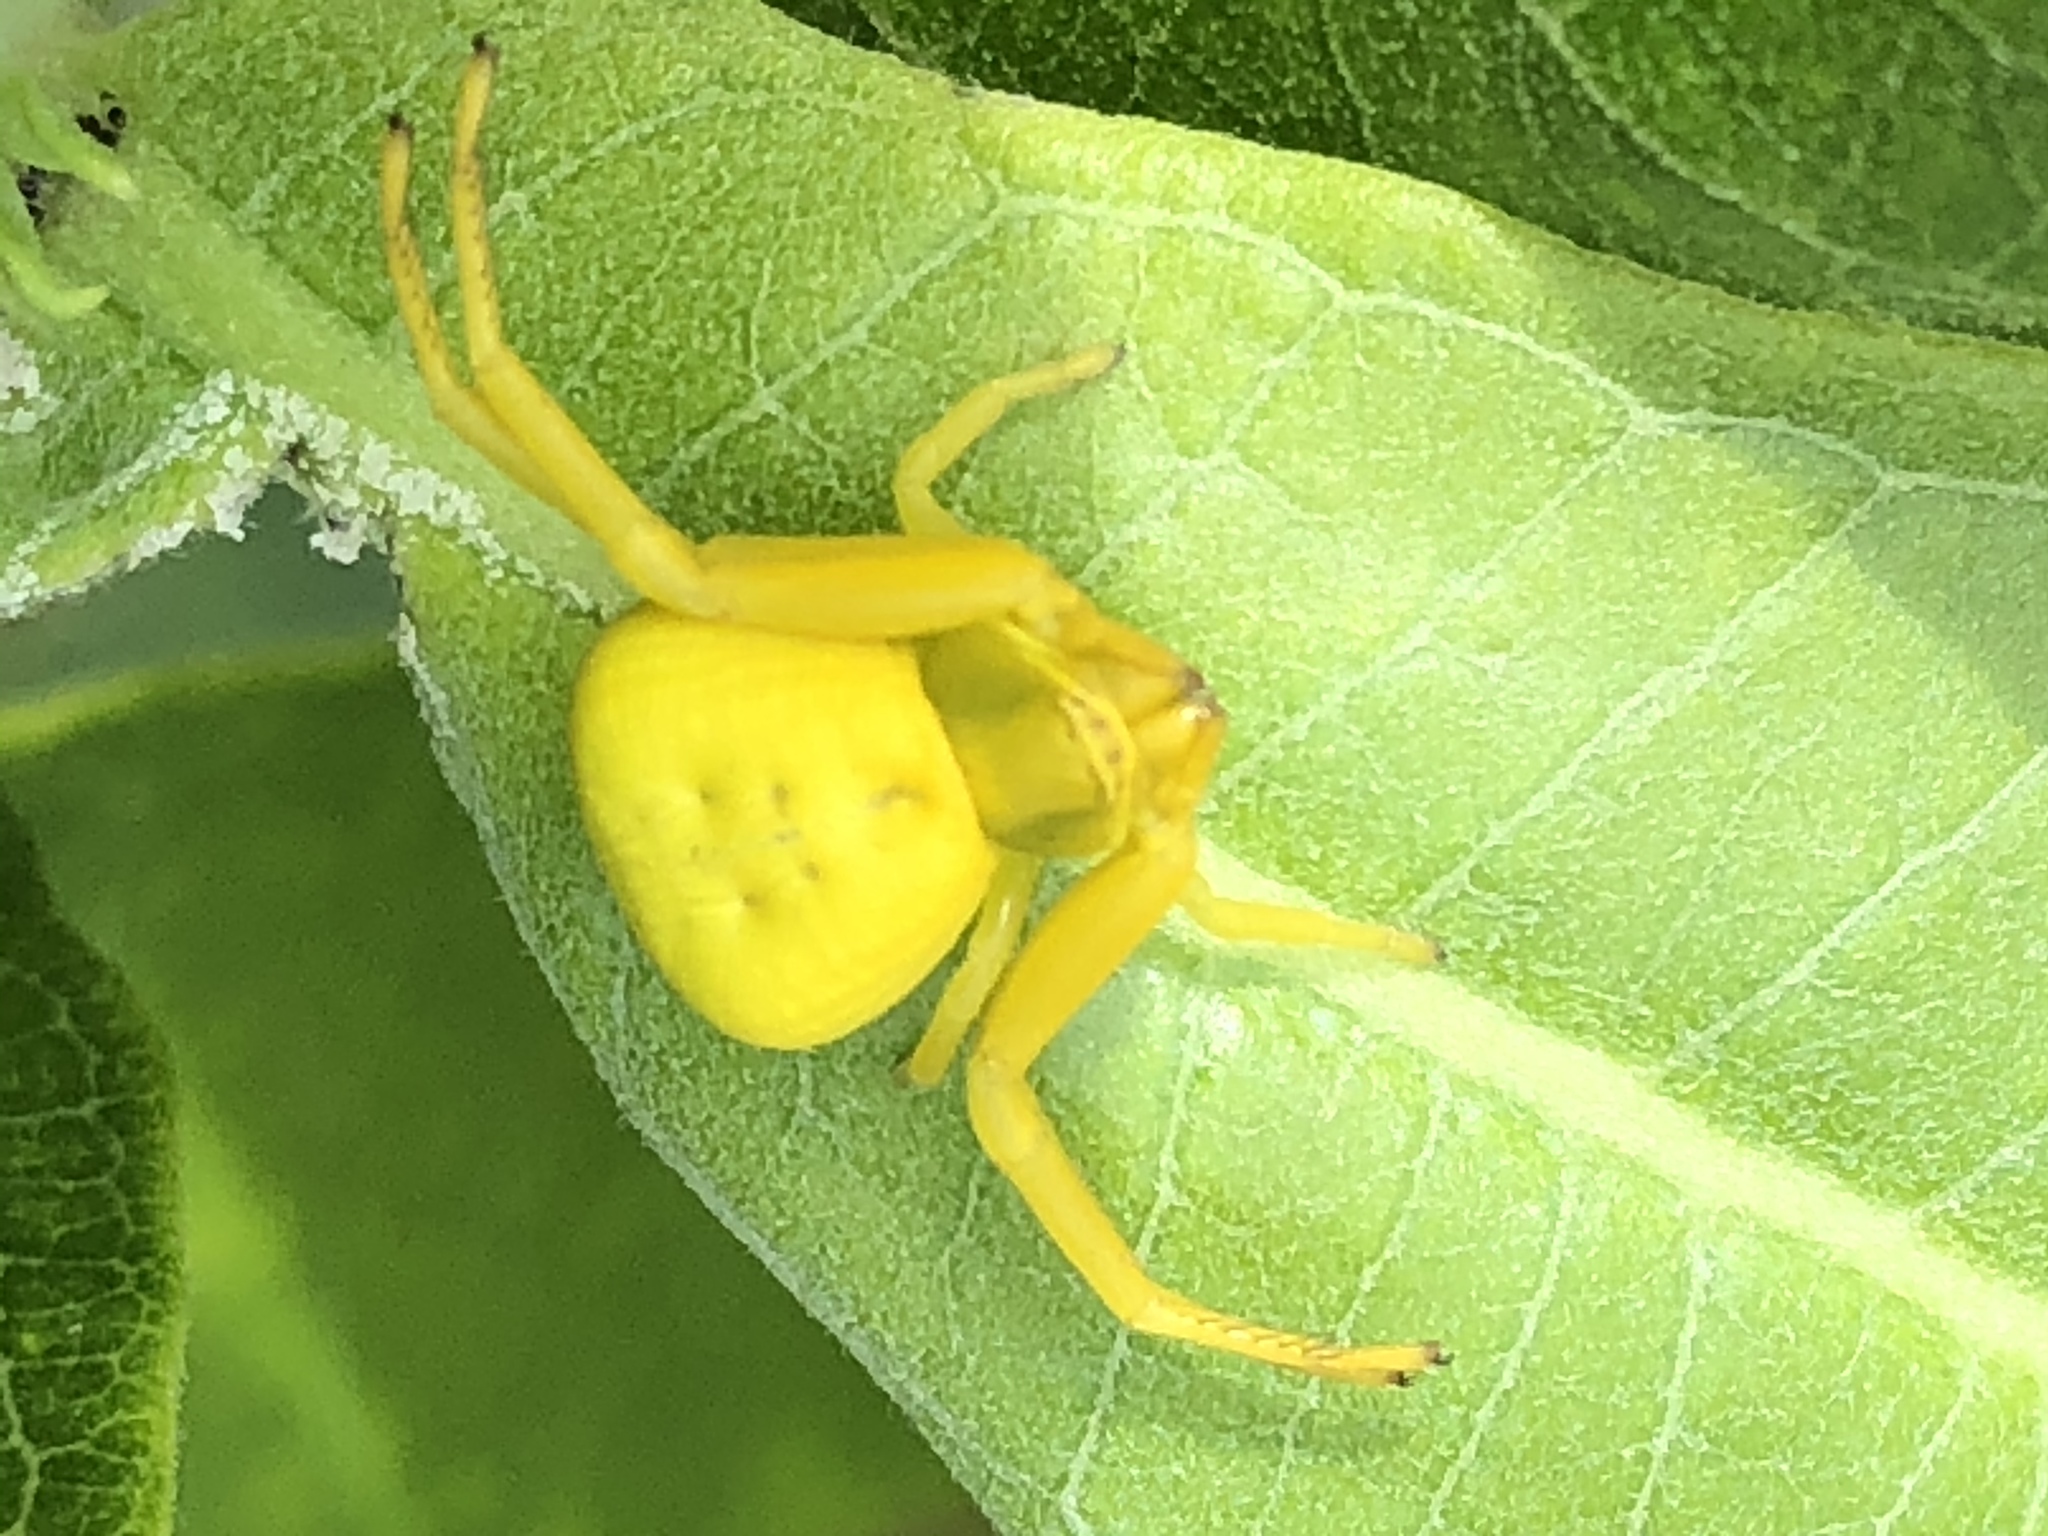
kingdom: Animalia
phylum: Arthropoda
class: Arachnida
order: Araneae
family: Thomisidae
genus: Misumenoides
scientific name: Misumenoides formosipes
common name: White-banded crab spider
